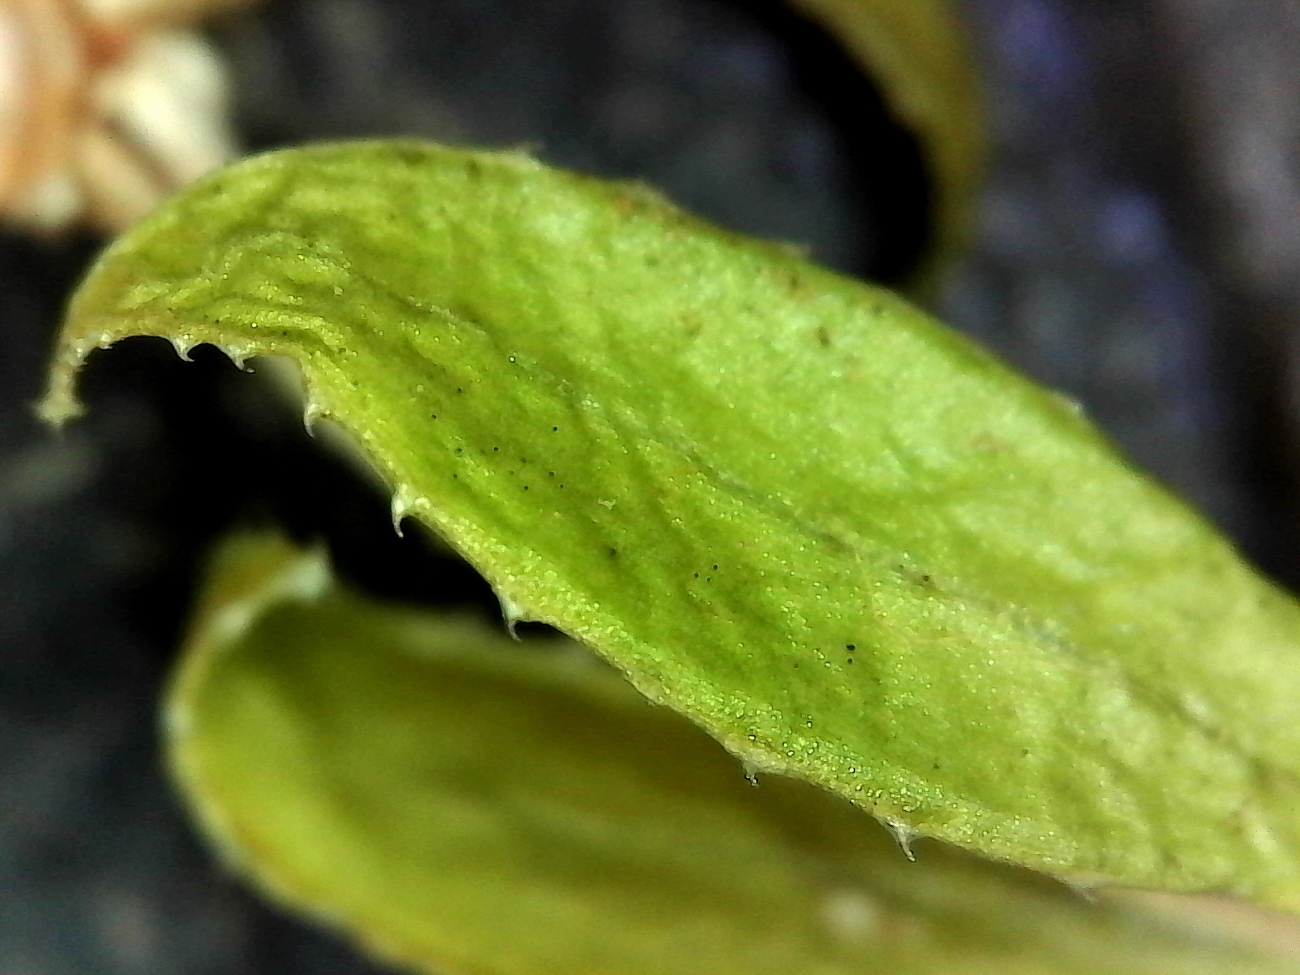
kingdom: Plantae
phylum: Tracheophyta
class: Magnoliopsida
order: Gentianales
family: Rubiaceae
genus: Galium
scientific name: Galium tomentosum
